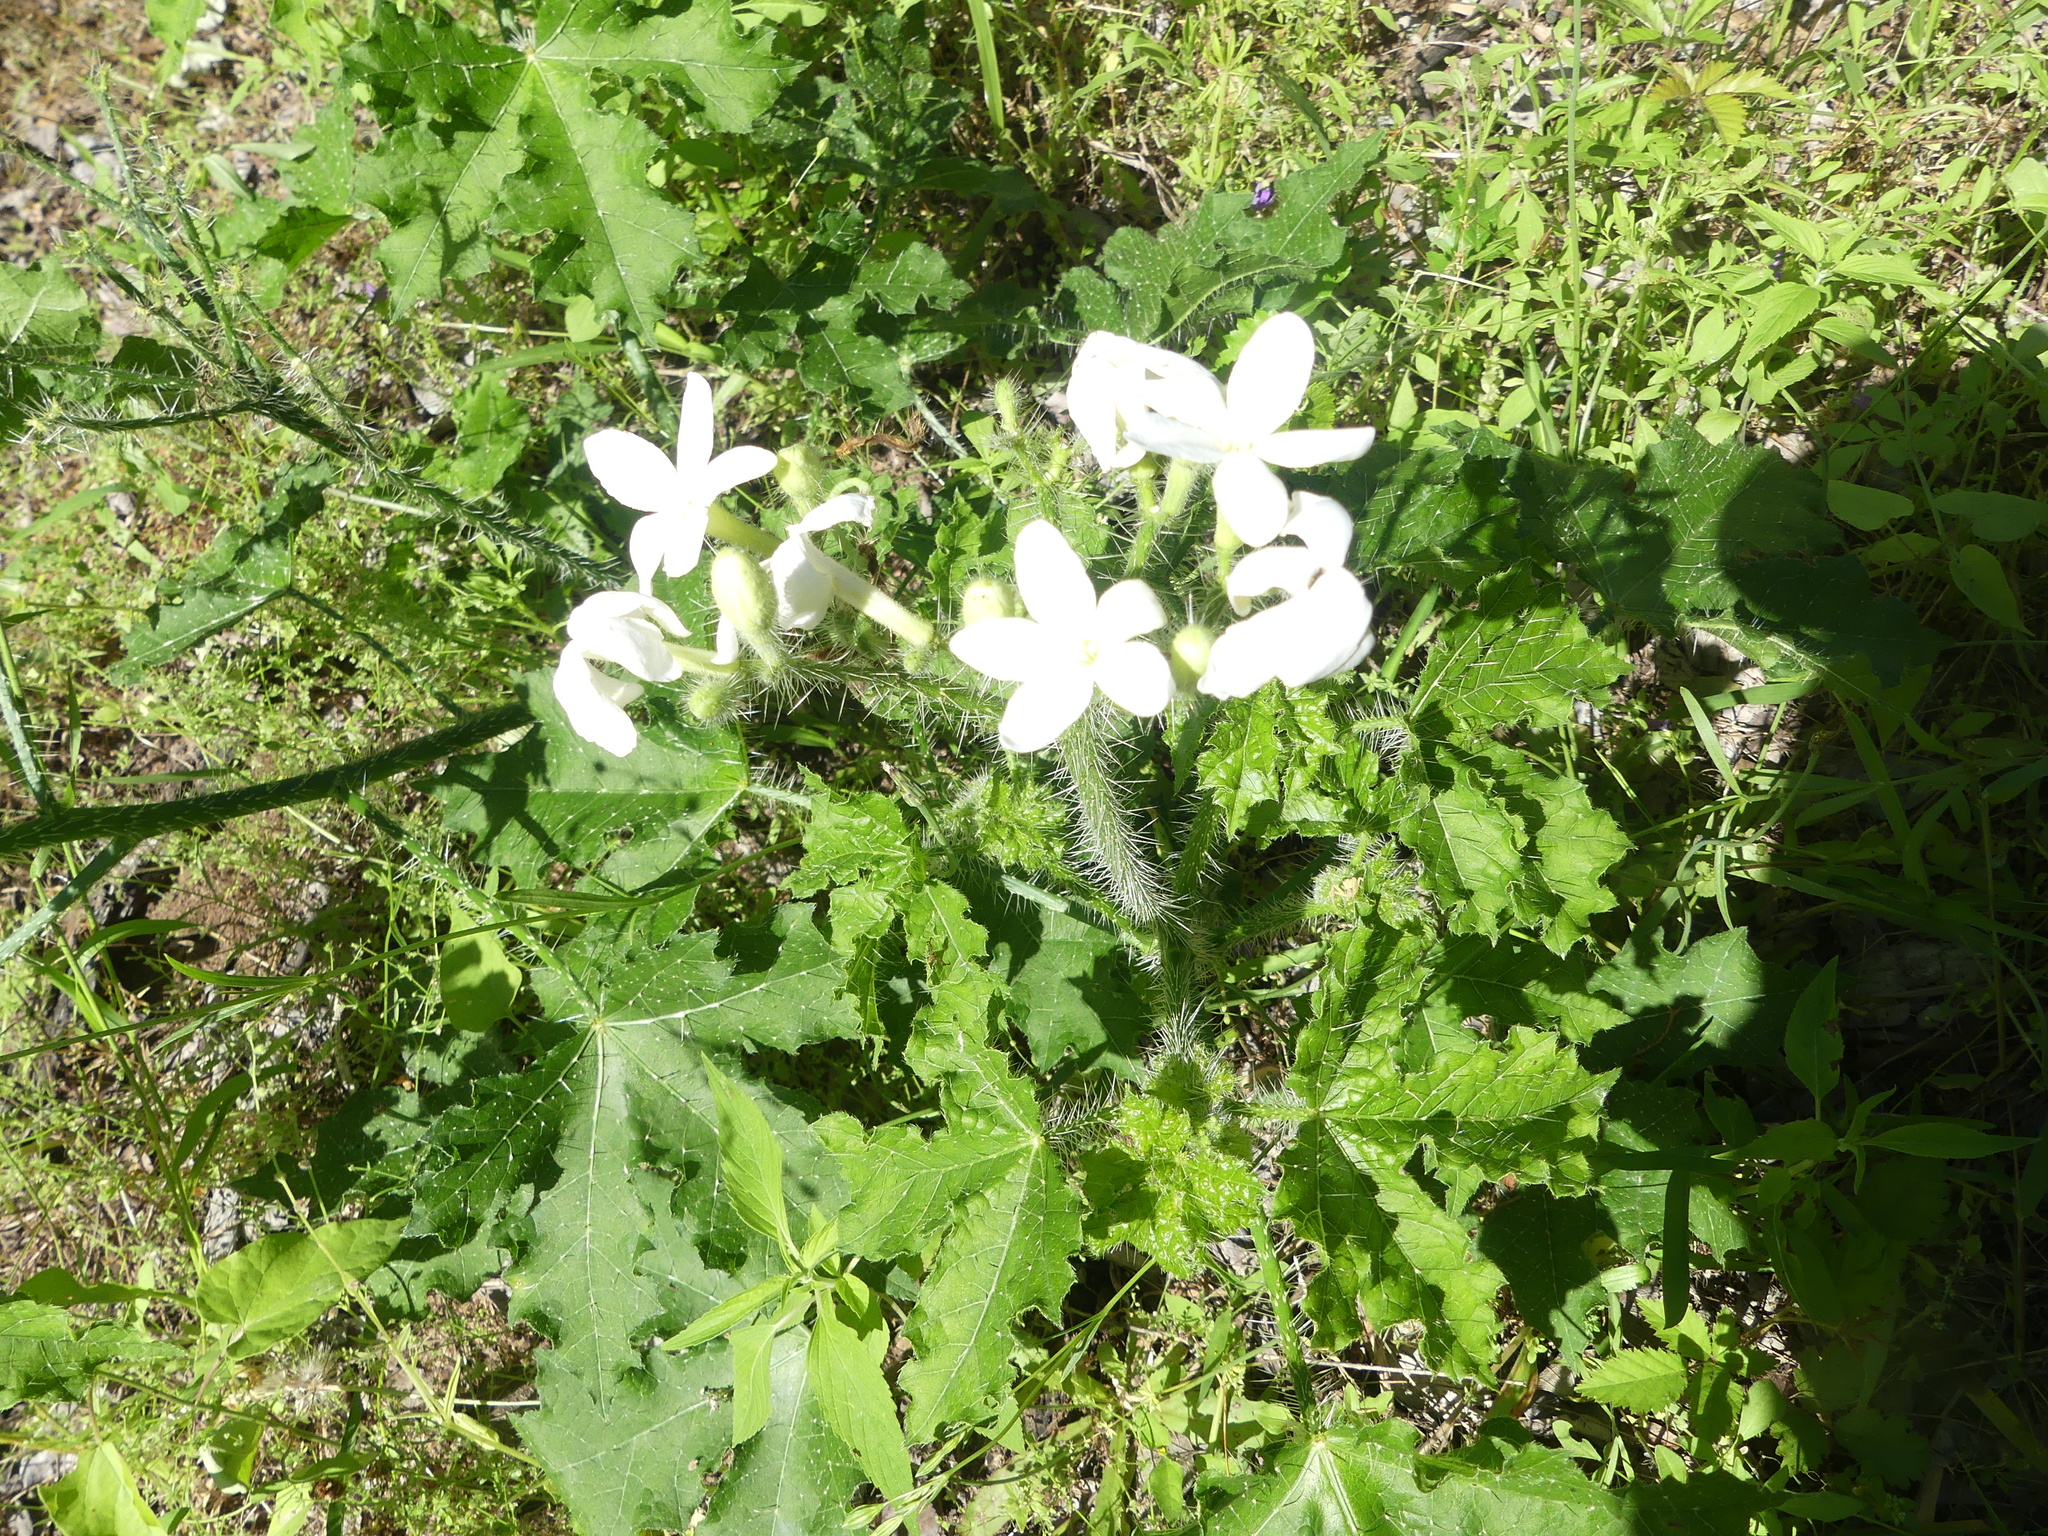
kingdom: Plantae
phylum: Tracheophyta
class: Magnoliopsida
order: Malpighiales
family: Euphorbiaceae
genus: Cnidoscolus
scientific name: Cnidoscolus texanus
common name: Texas bull-nettle
